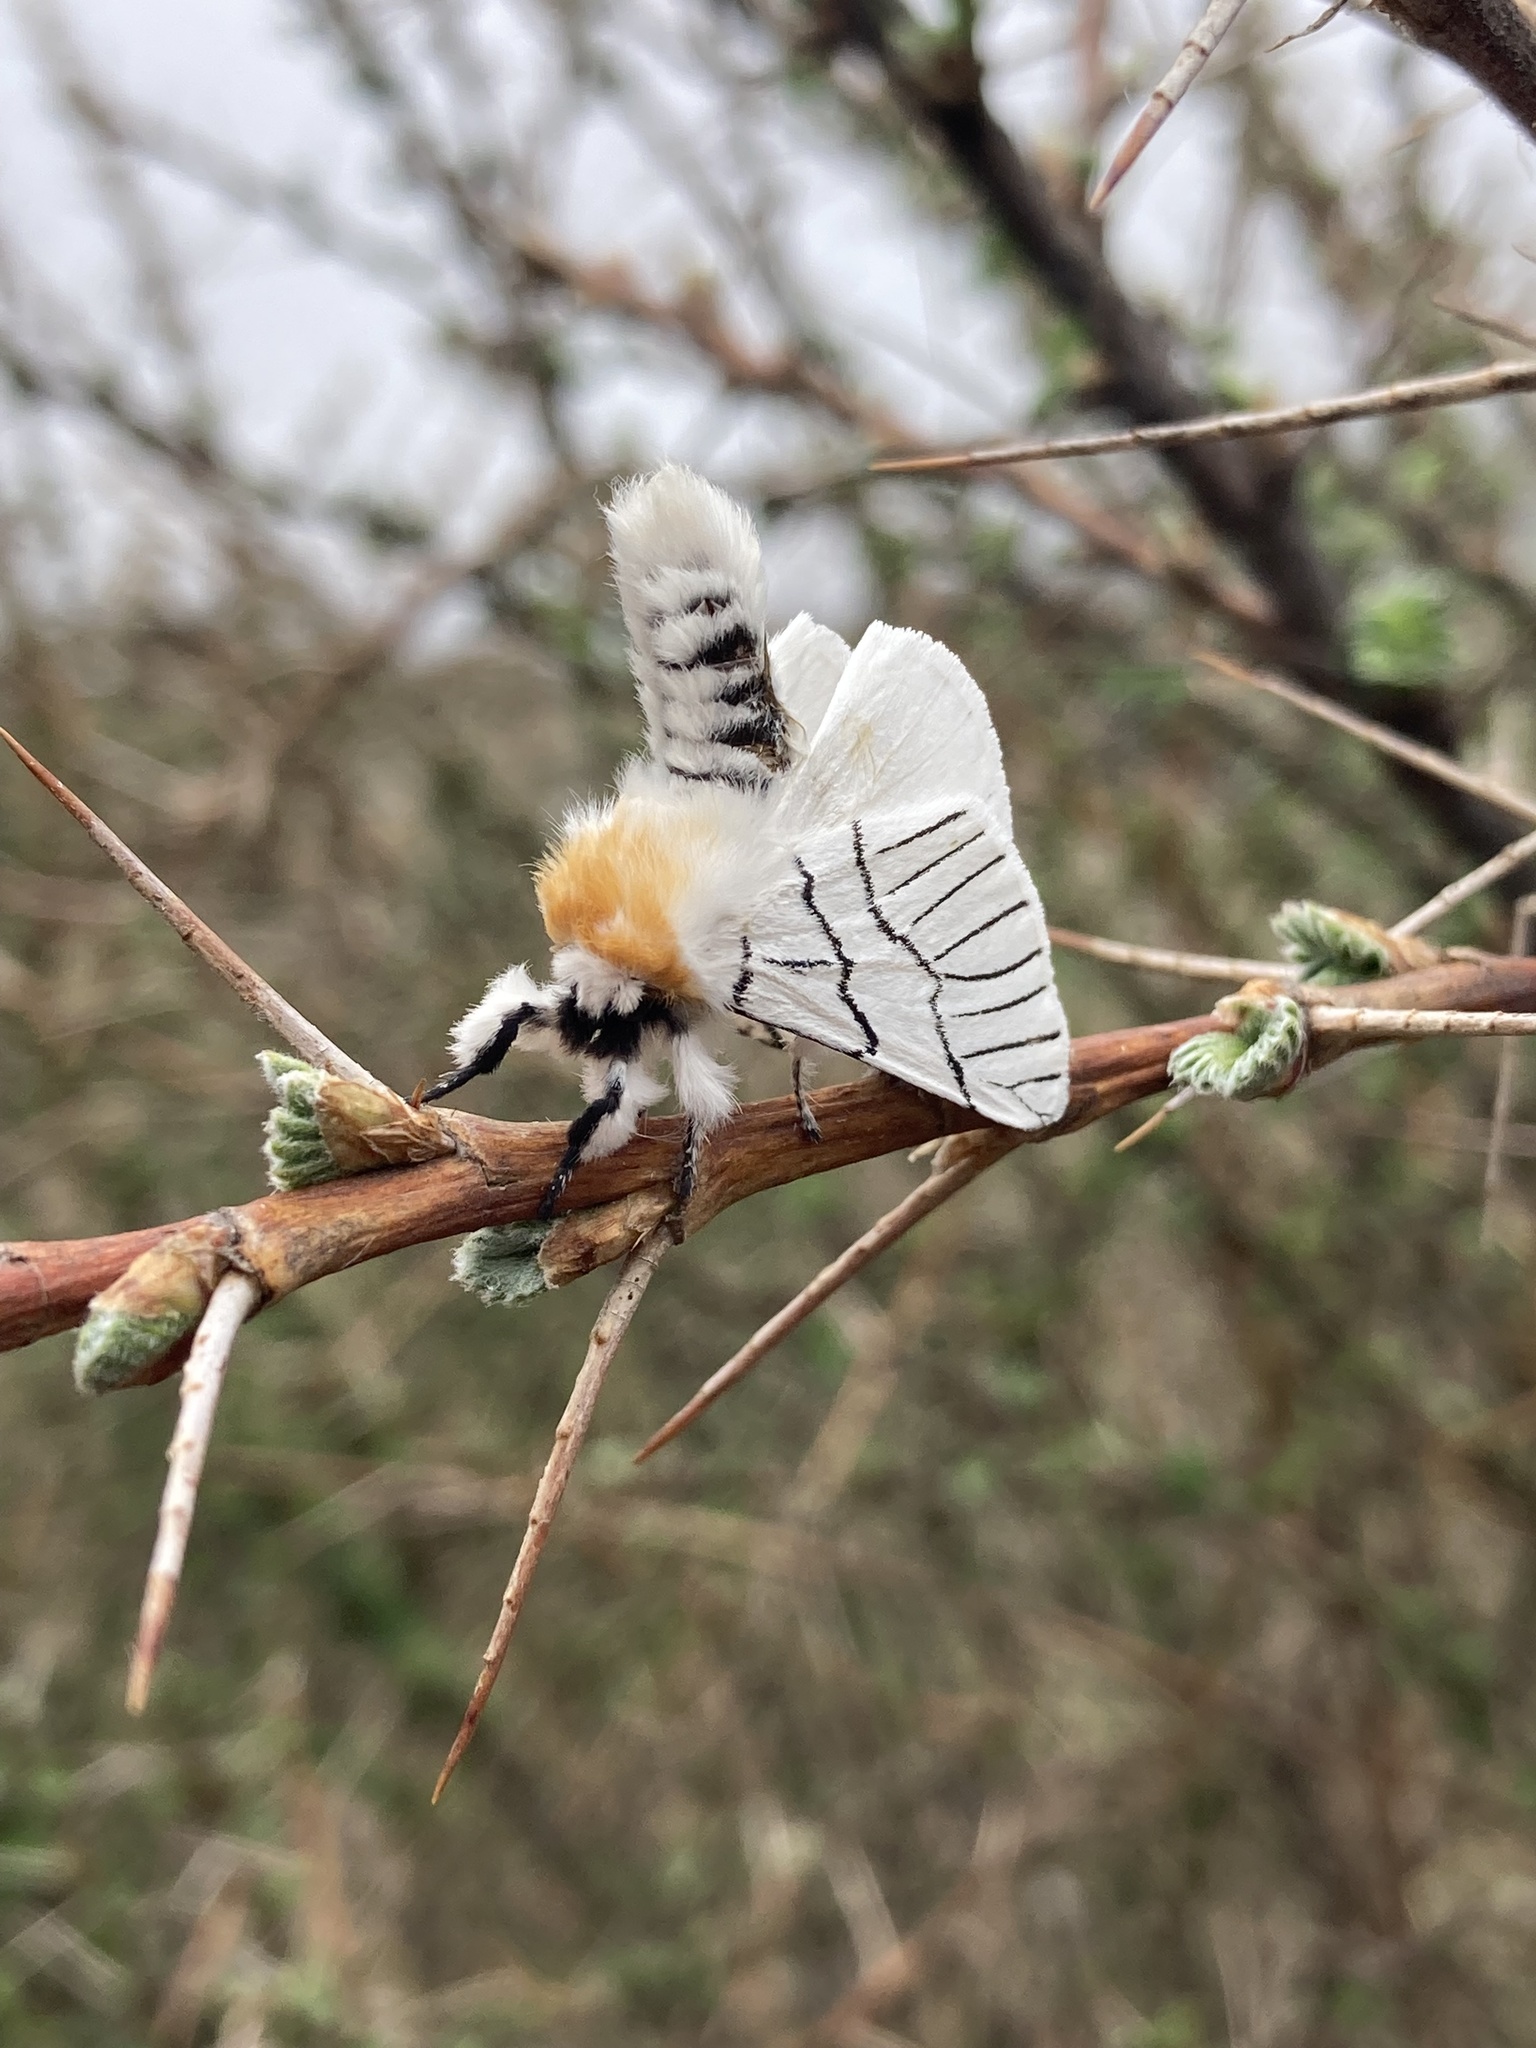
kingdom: Animalia
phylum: Arthropoda
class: Insecta
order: Lepidoptera
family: Notodontidae
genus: Oligoclona
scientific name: Oligoclona chrysolopha
